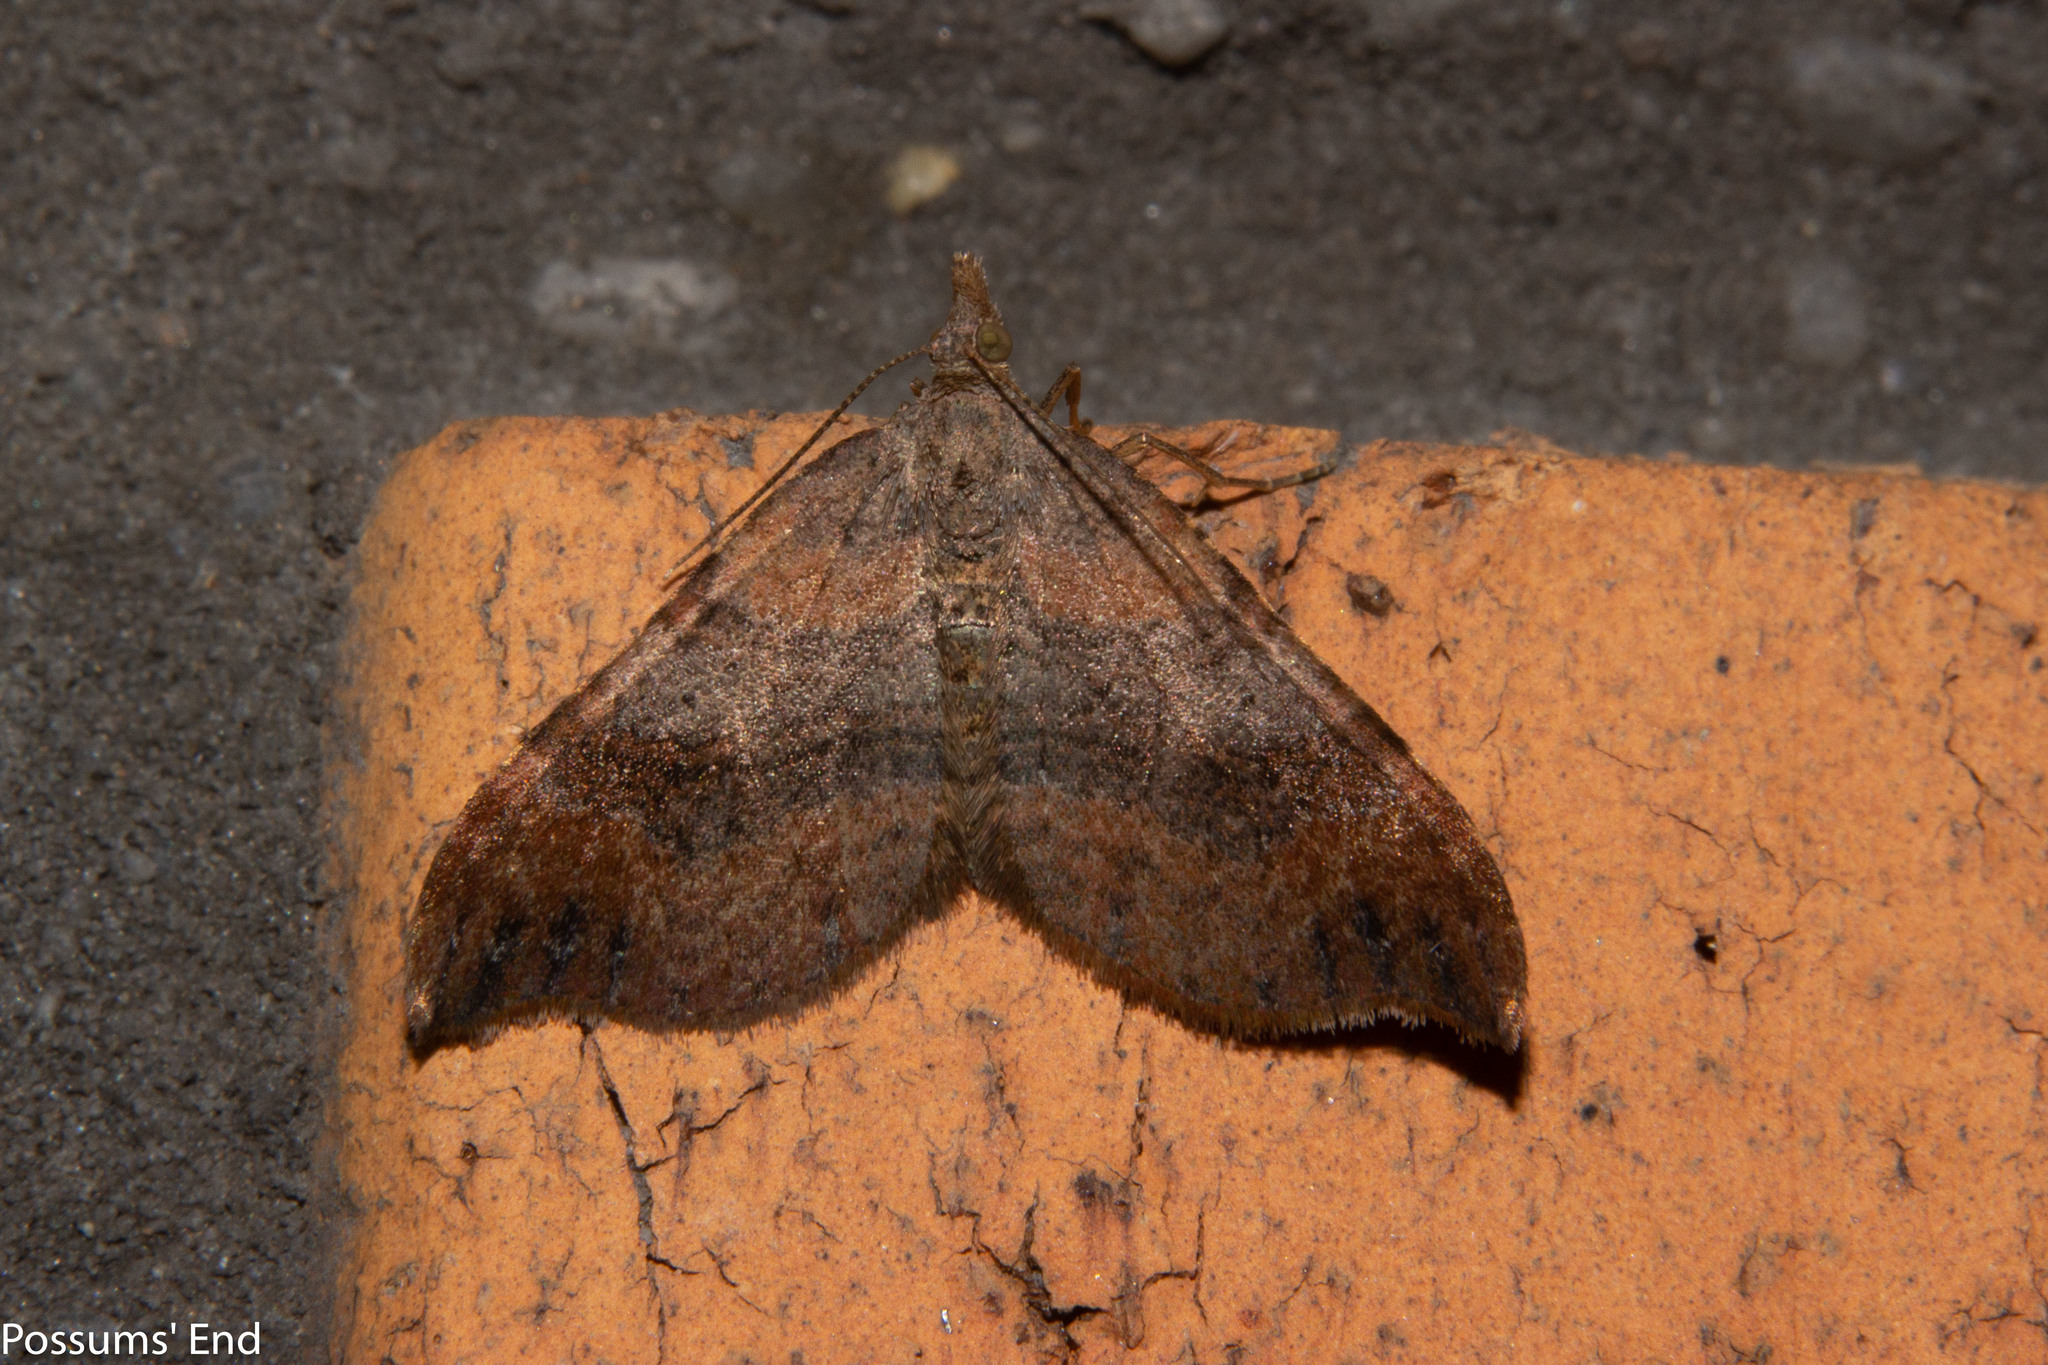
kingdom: Animalia
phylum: Arthropoda
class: Insecta
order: Lepidoptera
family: Geometridae
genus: Homodotis
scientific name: Homodotis megaspilata
